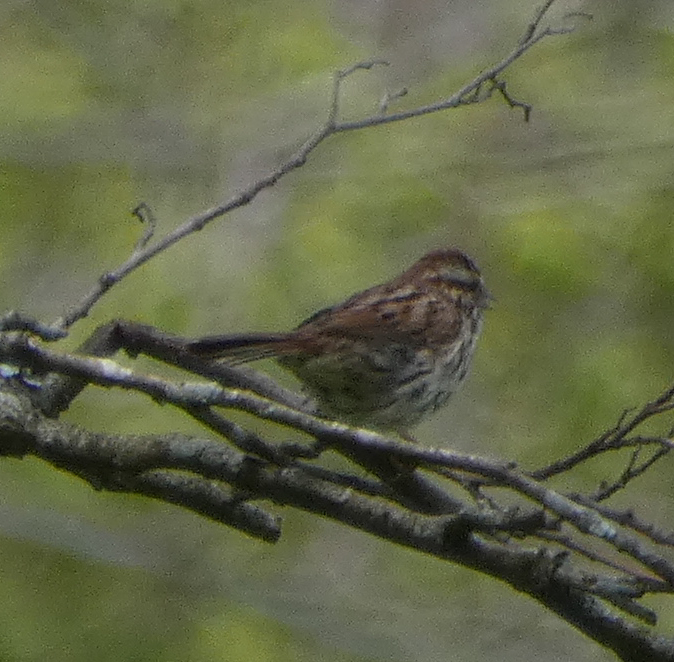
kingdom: Animalia
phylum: Chordata
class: Aves
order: Passeriformes
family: Passerellidae
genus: Melospiza
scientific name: Melospiza melodia
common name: Song sparrow
